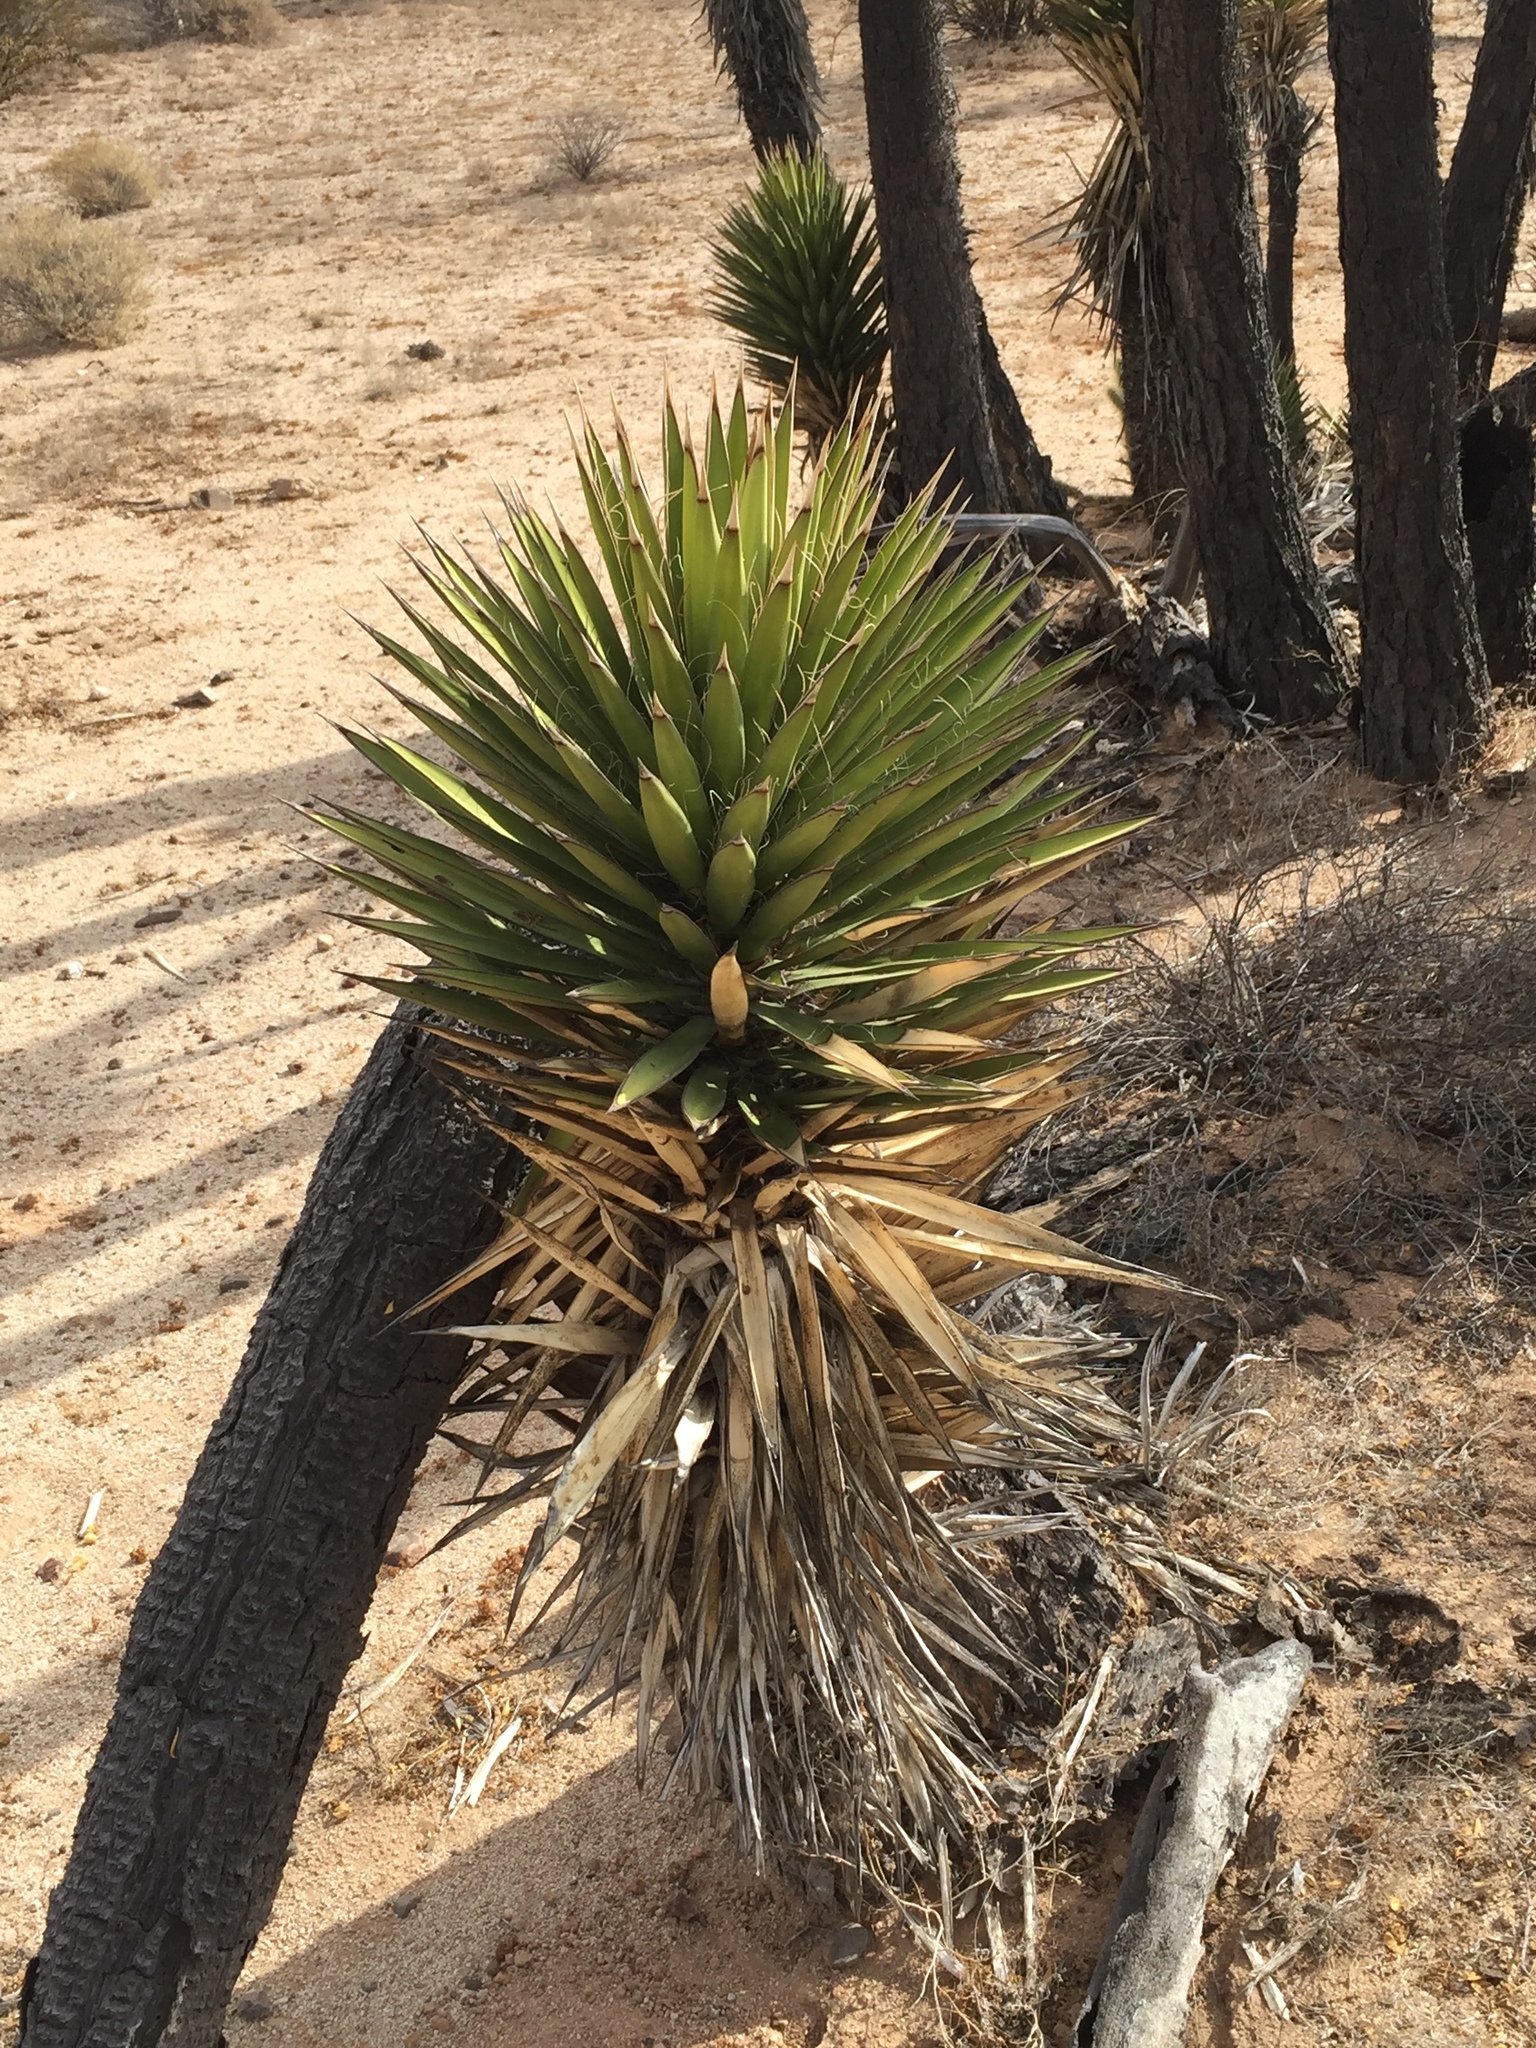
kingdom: Plantae
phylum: Tracheophyta
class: Liliopsida
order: Asparagales
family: Asparagaceae
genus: Yucca
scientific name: Yucca valida
